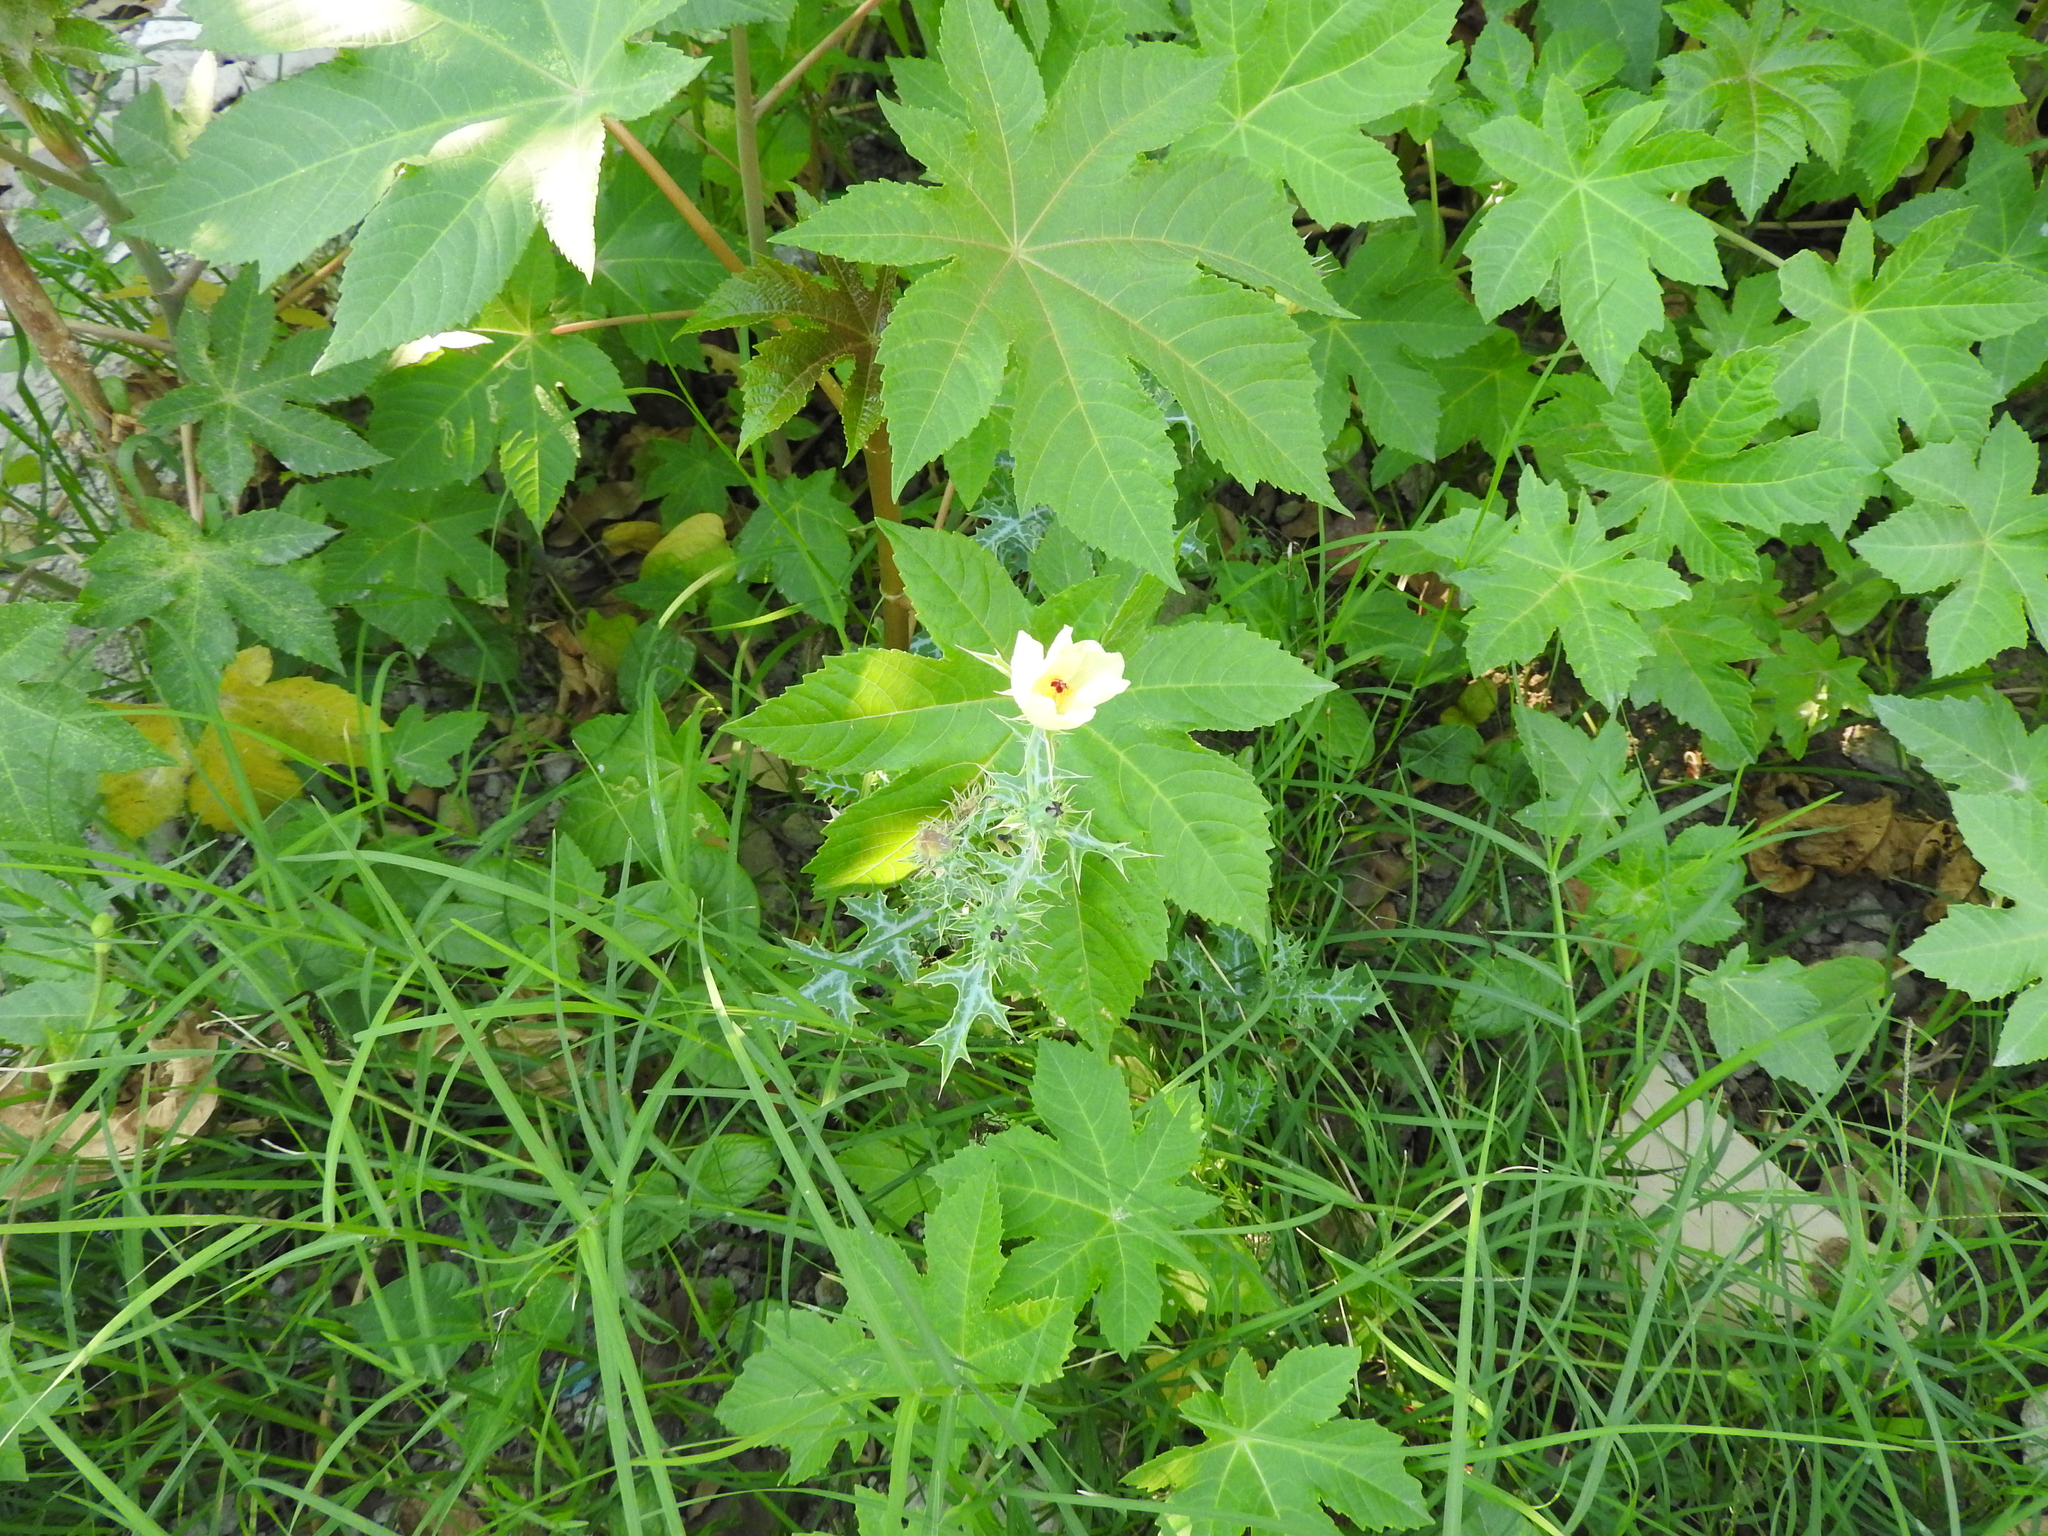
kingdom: Plantae
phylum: Tracheophyta
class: Magnoliopsida
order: Ranunculales
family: Papaveraceae
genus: Argemone
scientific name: Argemone ochroleuca
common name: White-flower mexican-poppy
